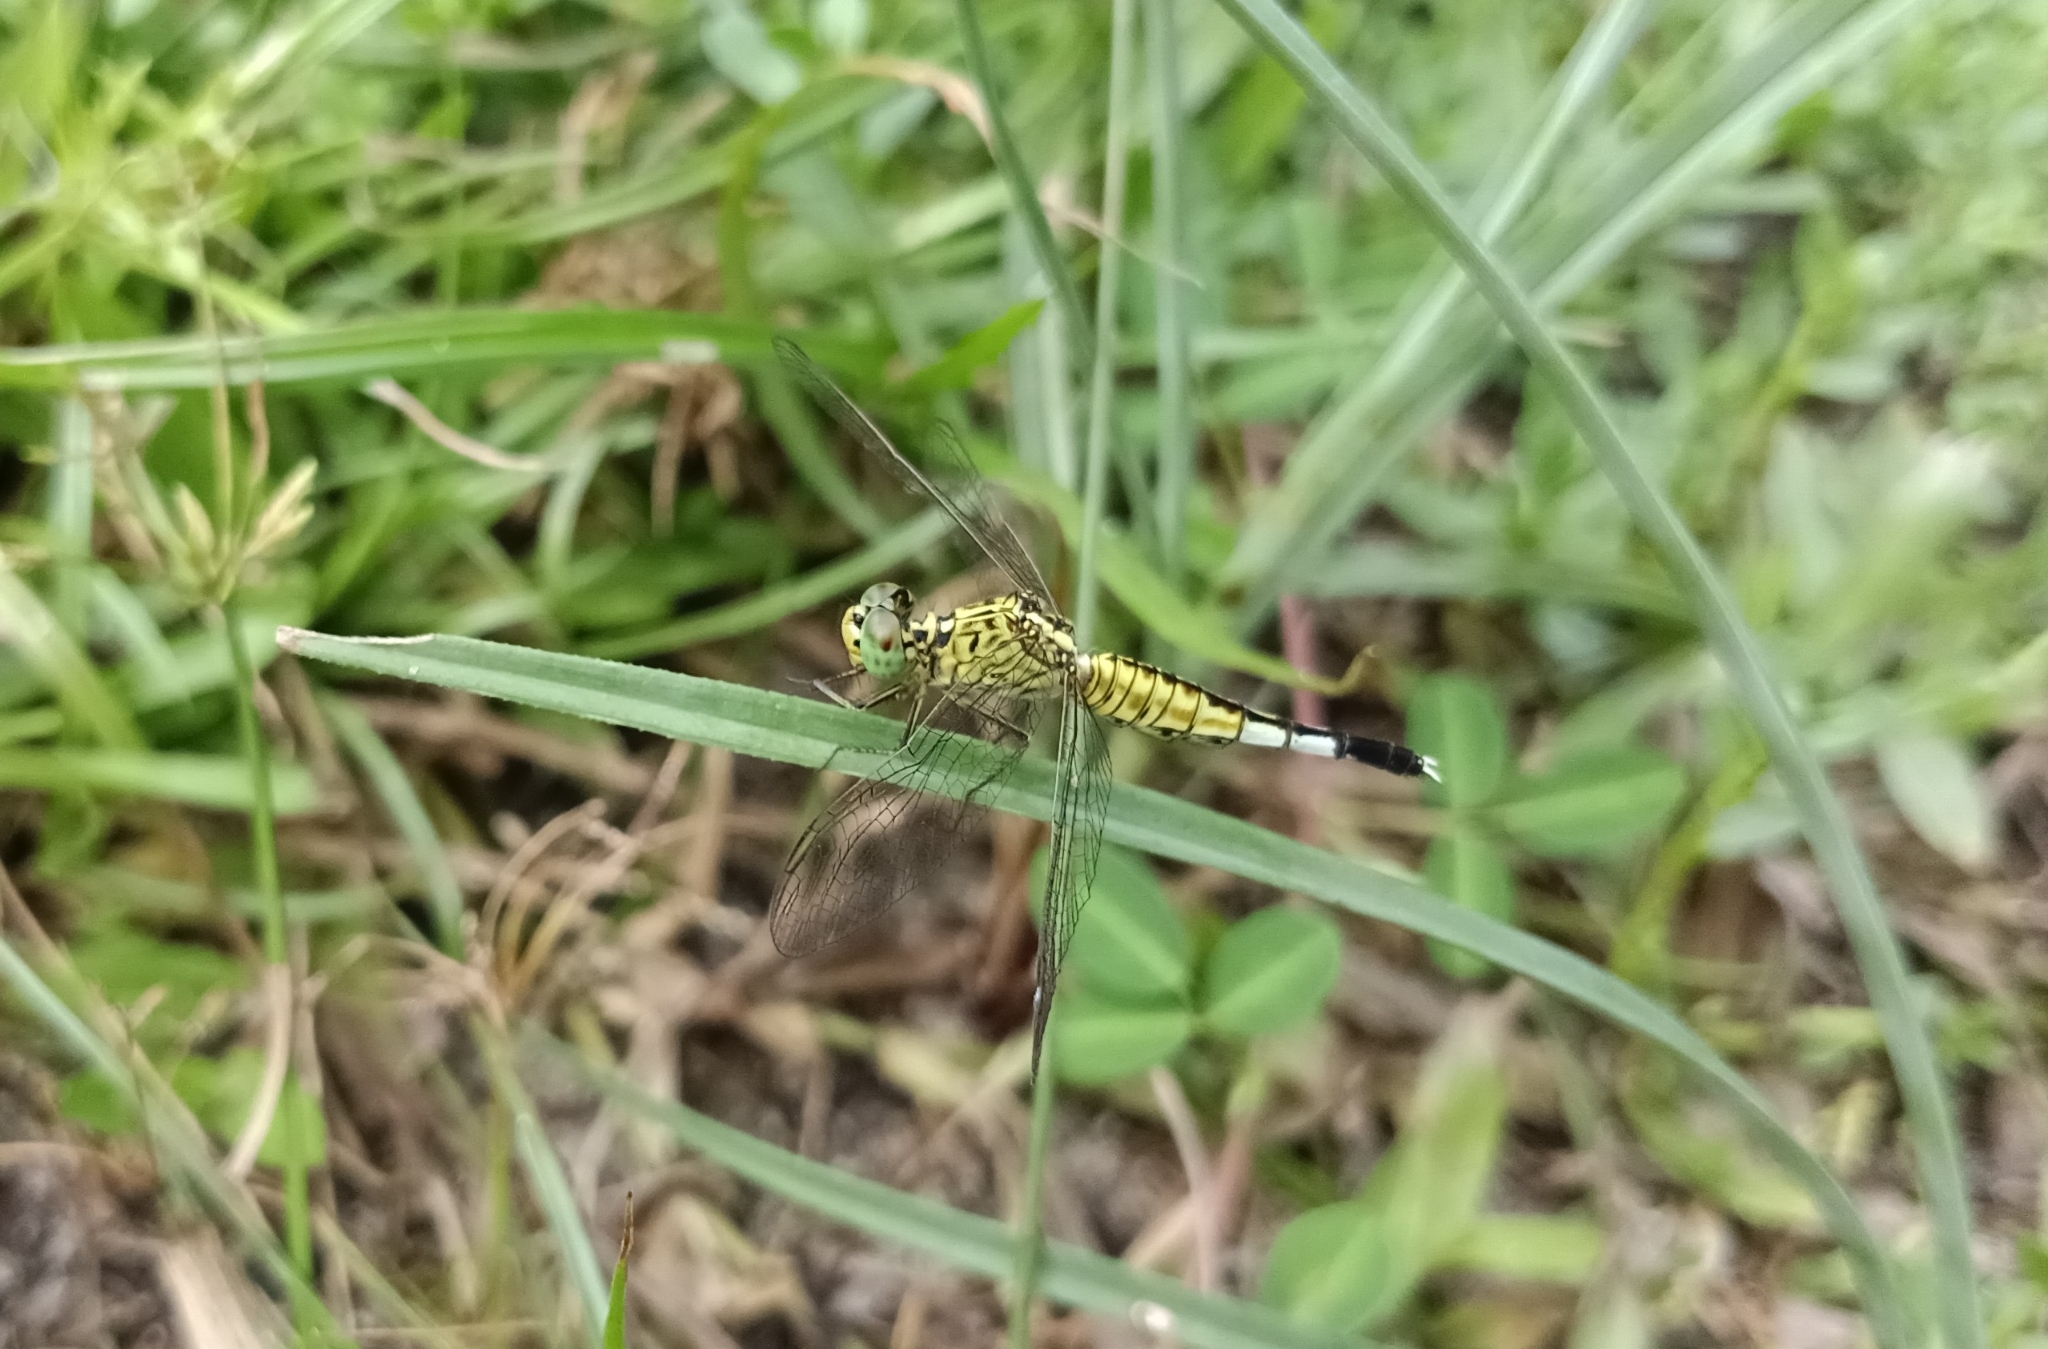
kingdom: Animalia
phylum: Arthropoda
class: Insecta
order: Odonata
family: Libellulidae
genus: Acisoma
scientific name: Acisoma panorpoides
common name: Asian pintail
